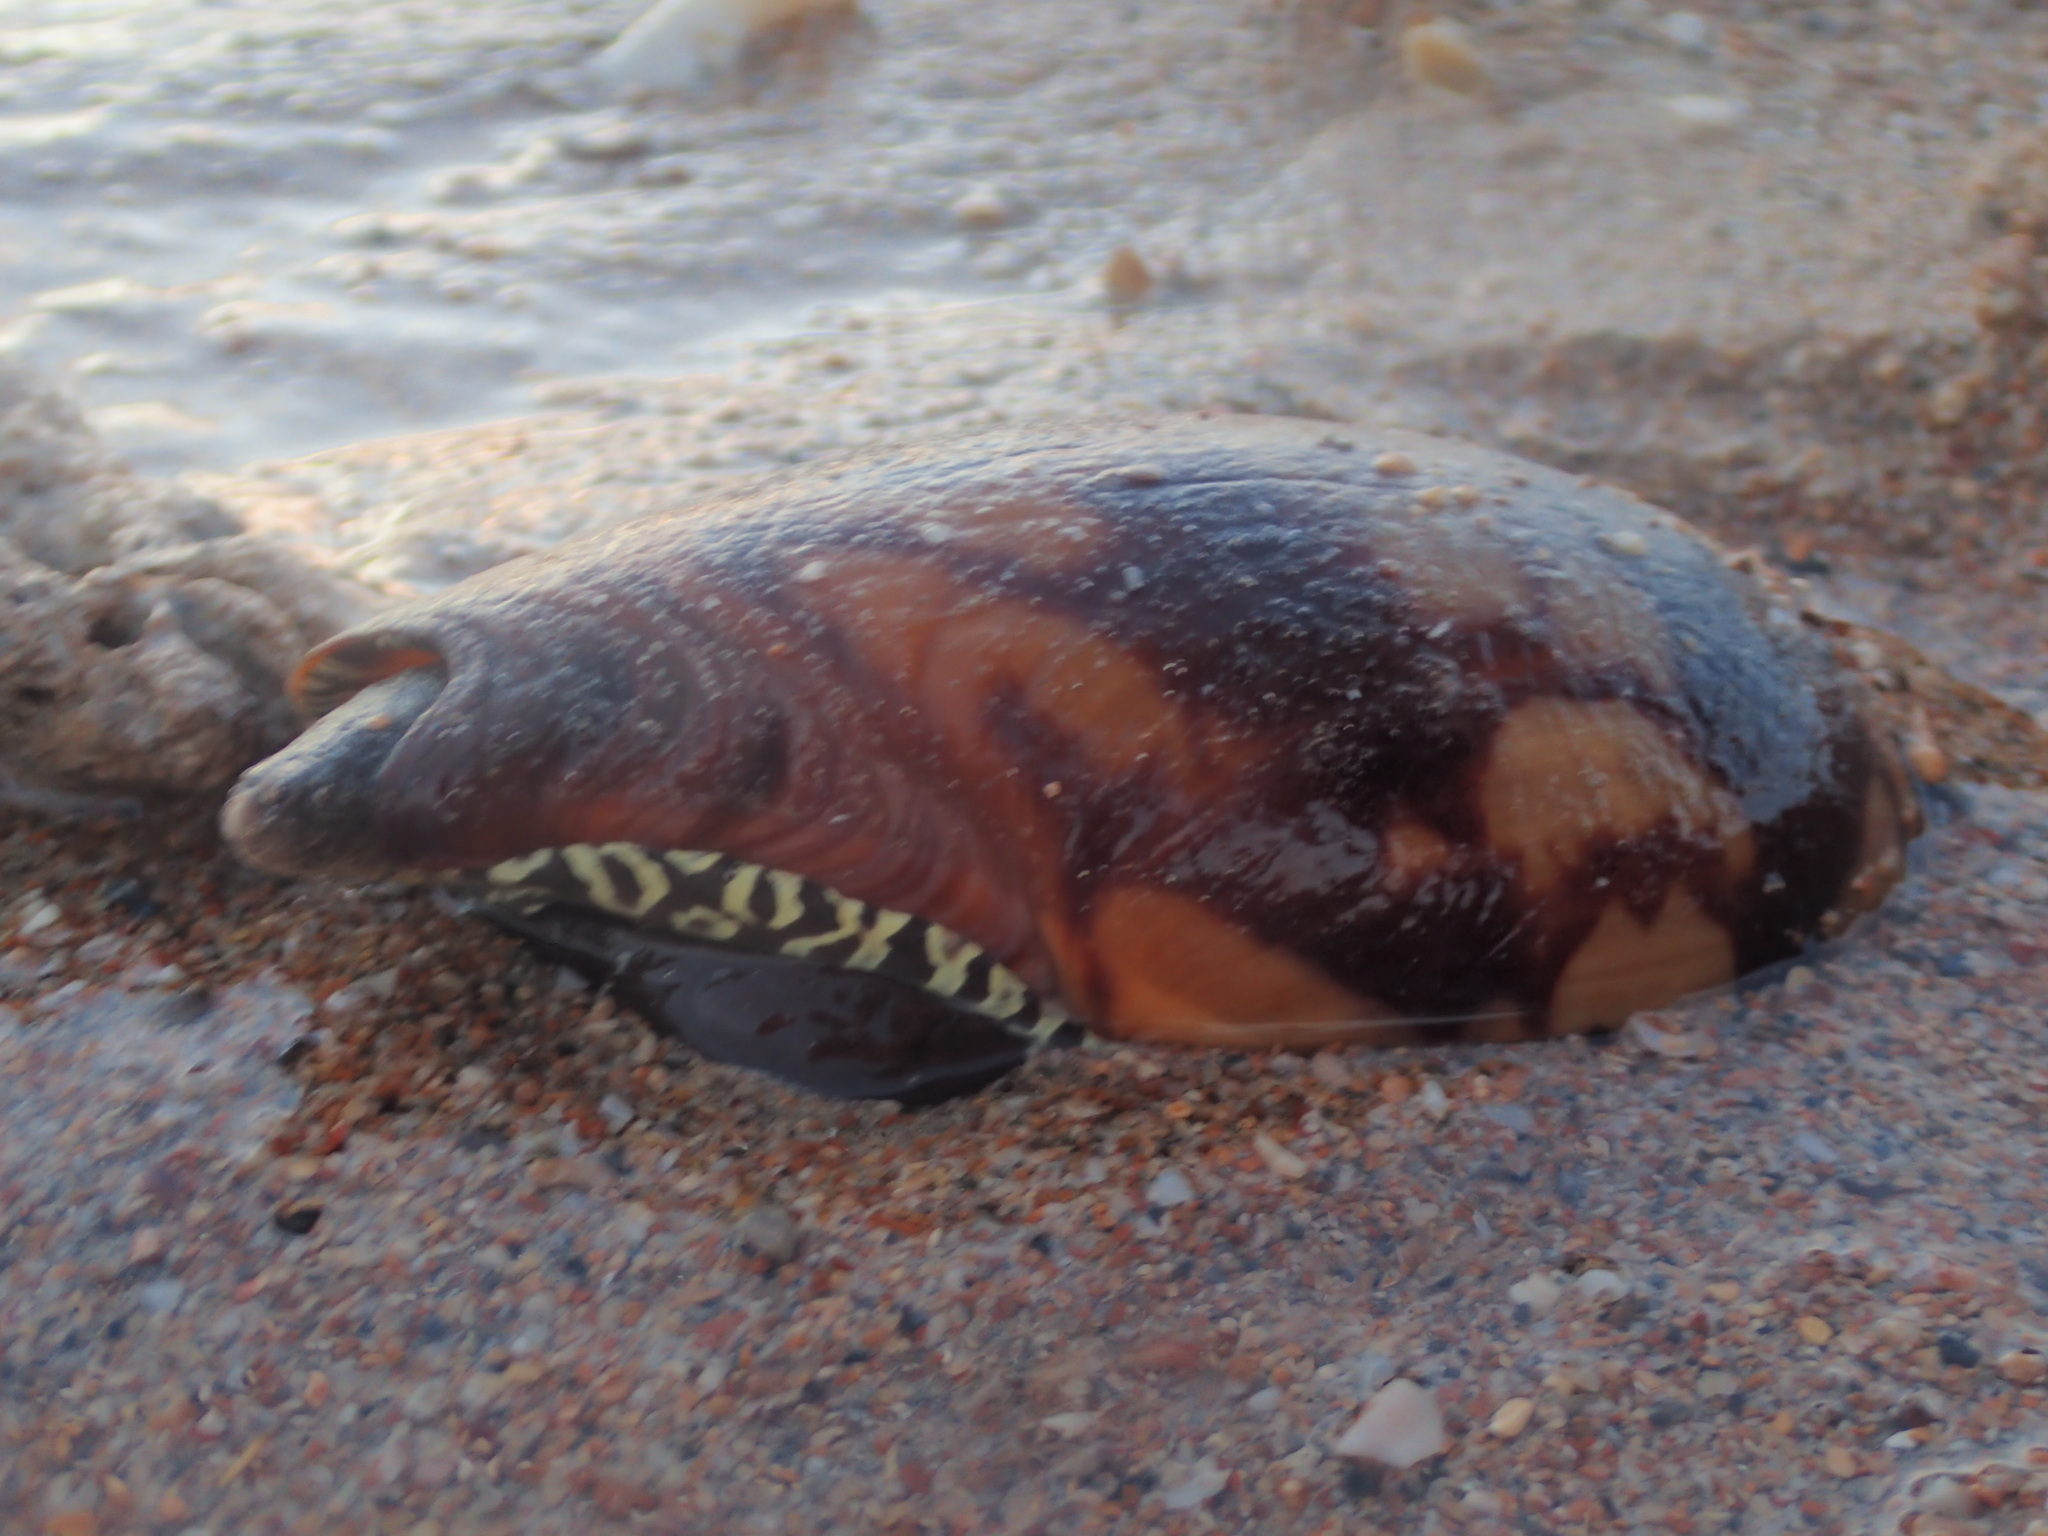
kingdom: Animalia
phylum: Mollusca
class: Gastropoda
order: Neogastropoda
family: Volutidae
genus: Melo
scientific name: Melo amphora
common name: Diadem volute
